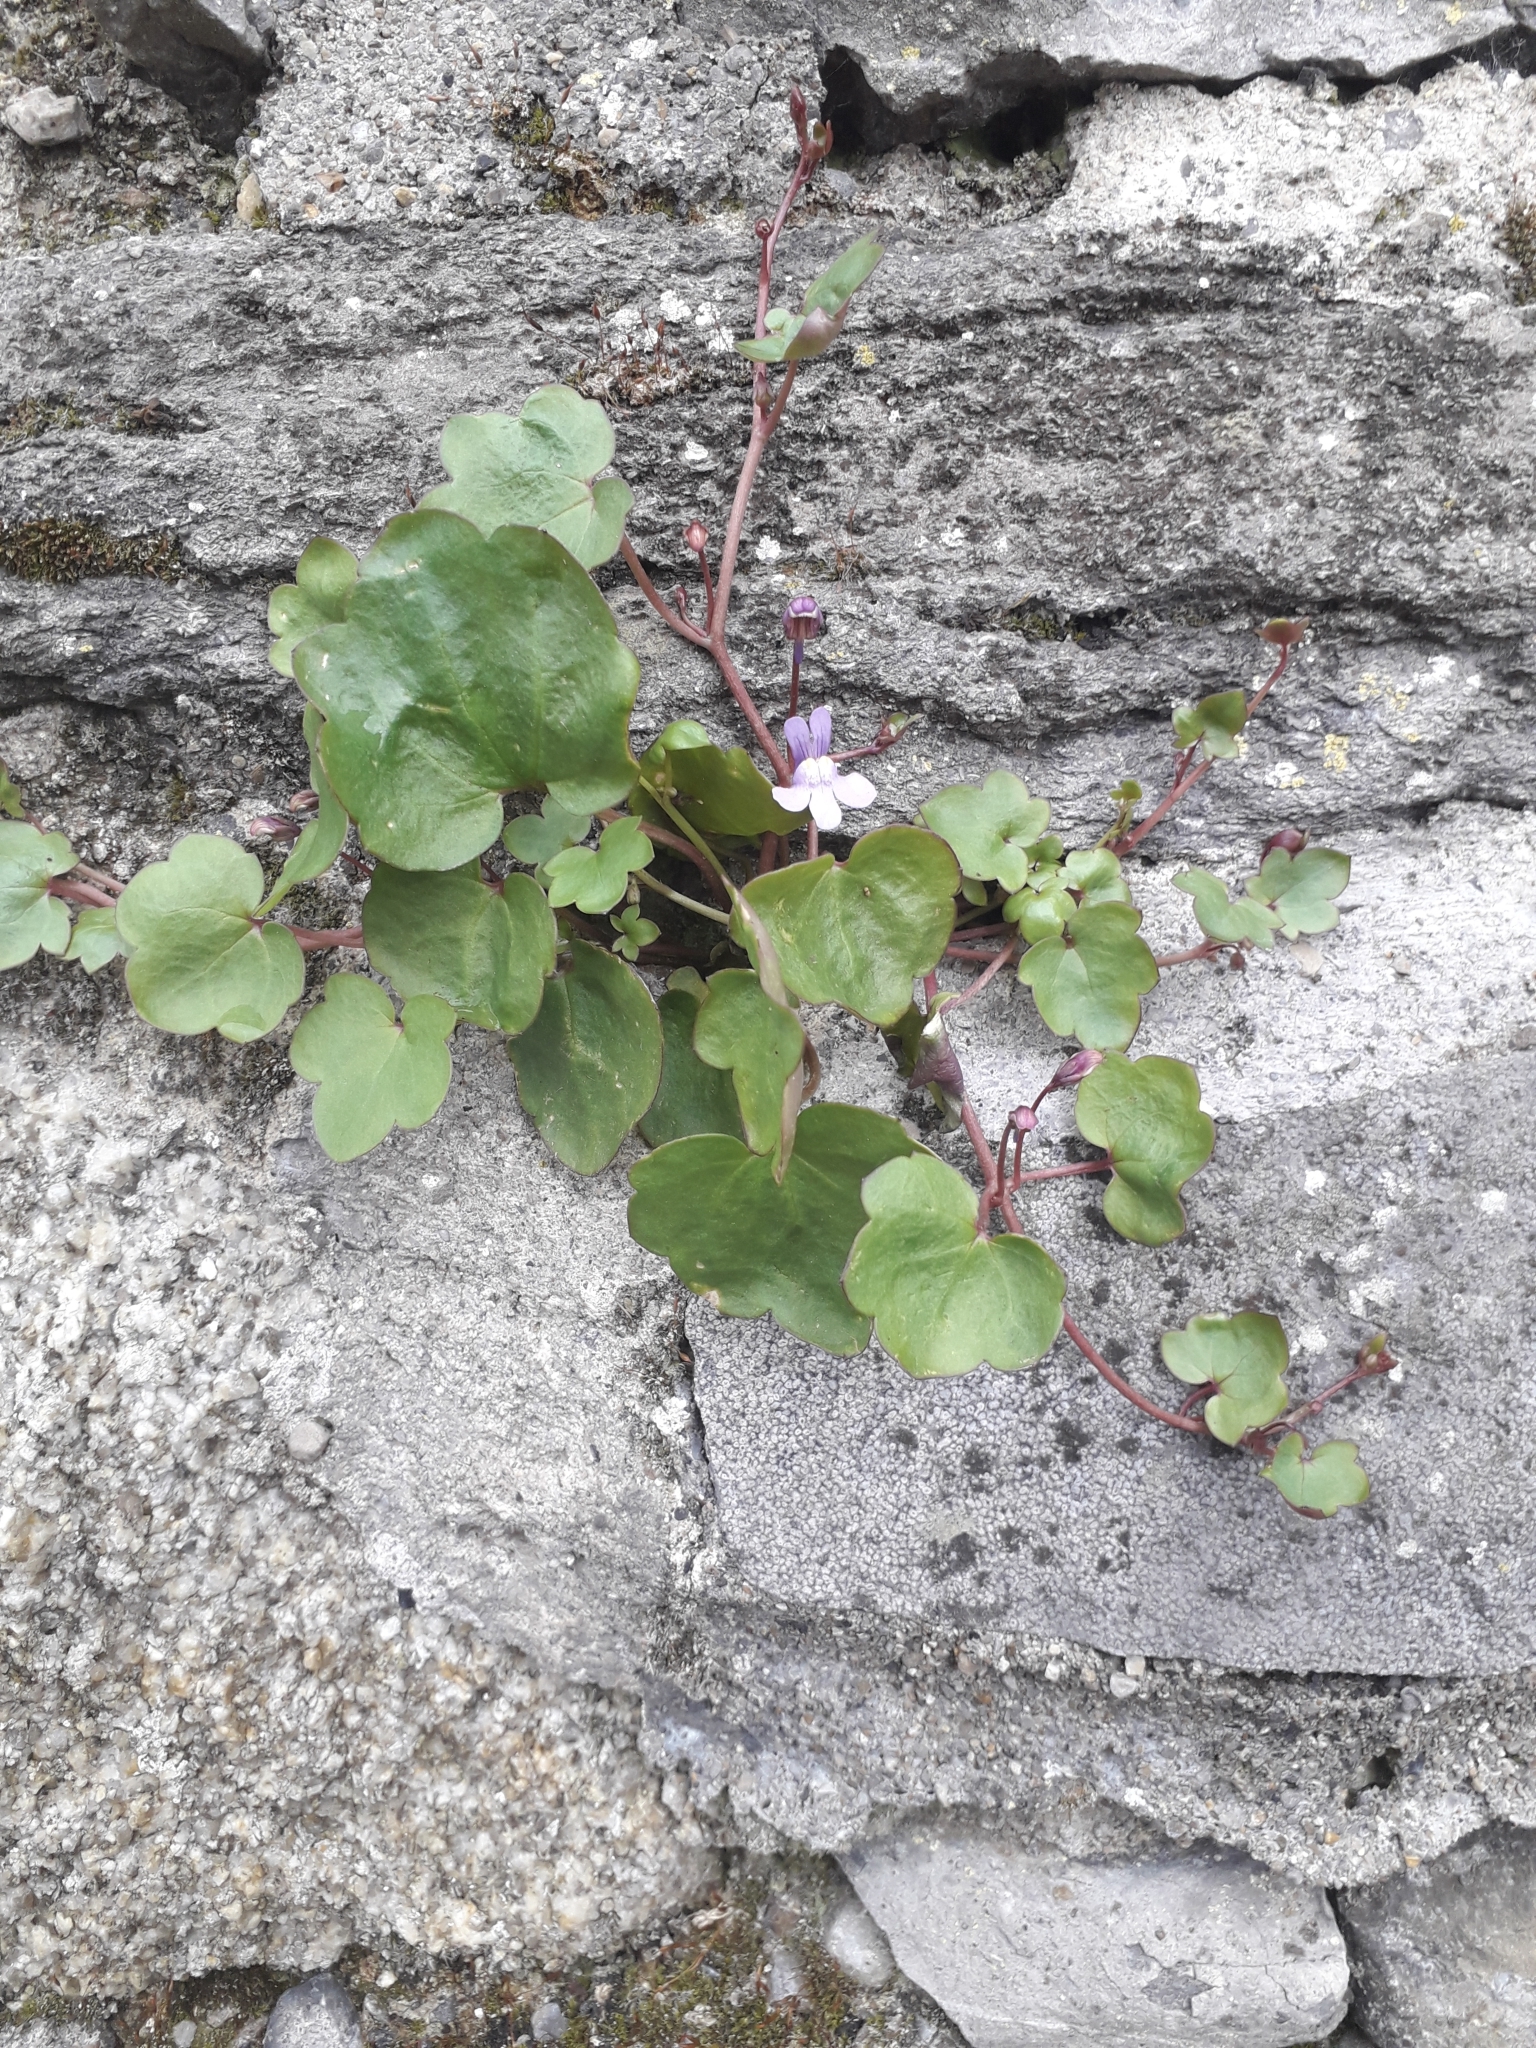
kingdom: Plantae
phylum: Tracheophyta
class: Magnoliopsida
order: Lamiales
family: Plantaginaceae
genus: Cymbalaria
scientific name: Cymbalaria muralis
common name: Ivy-leaved toadflax
